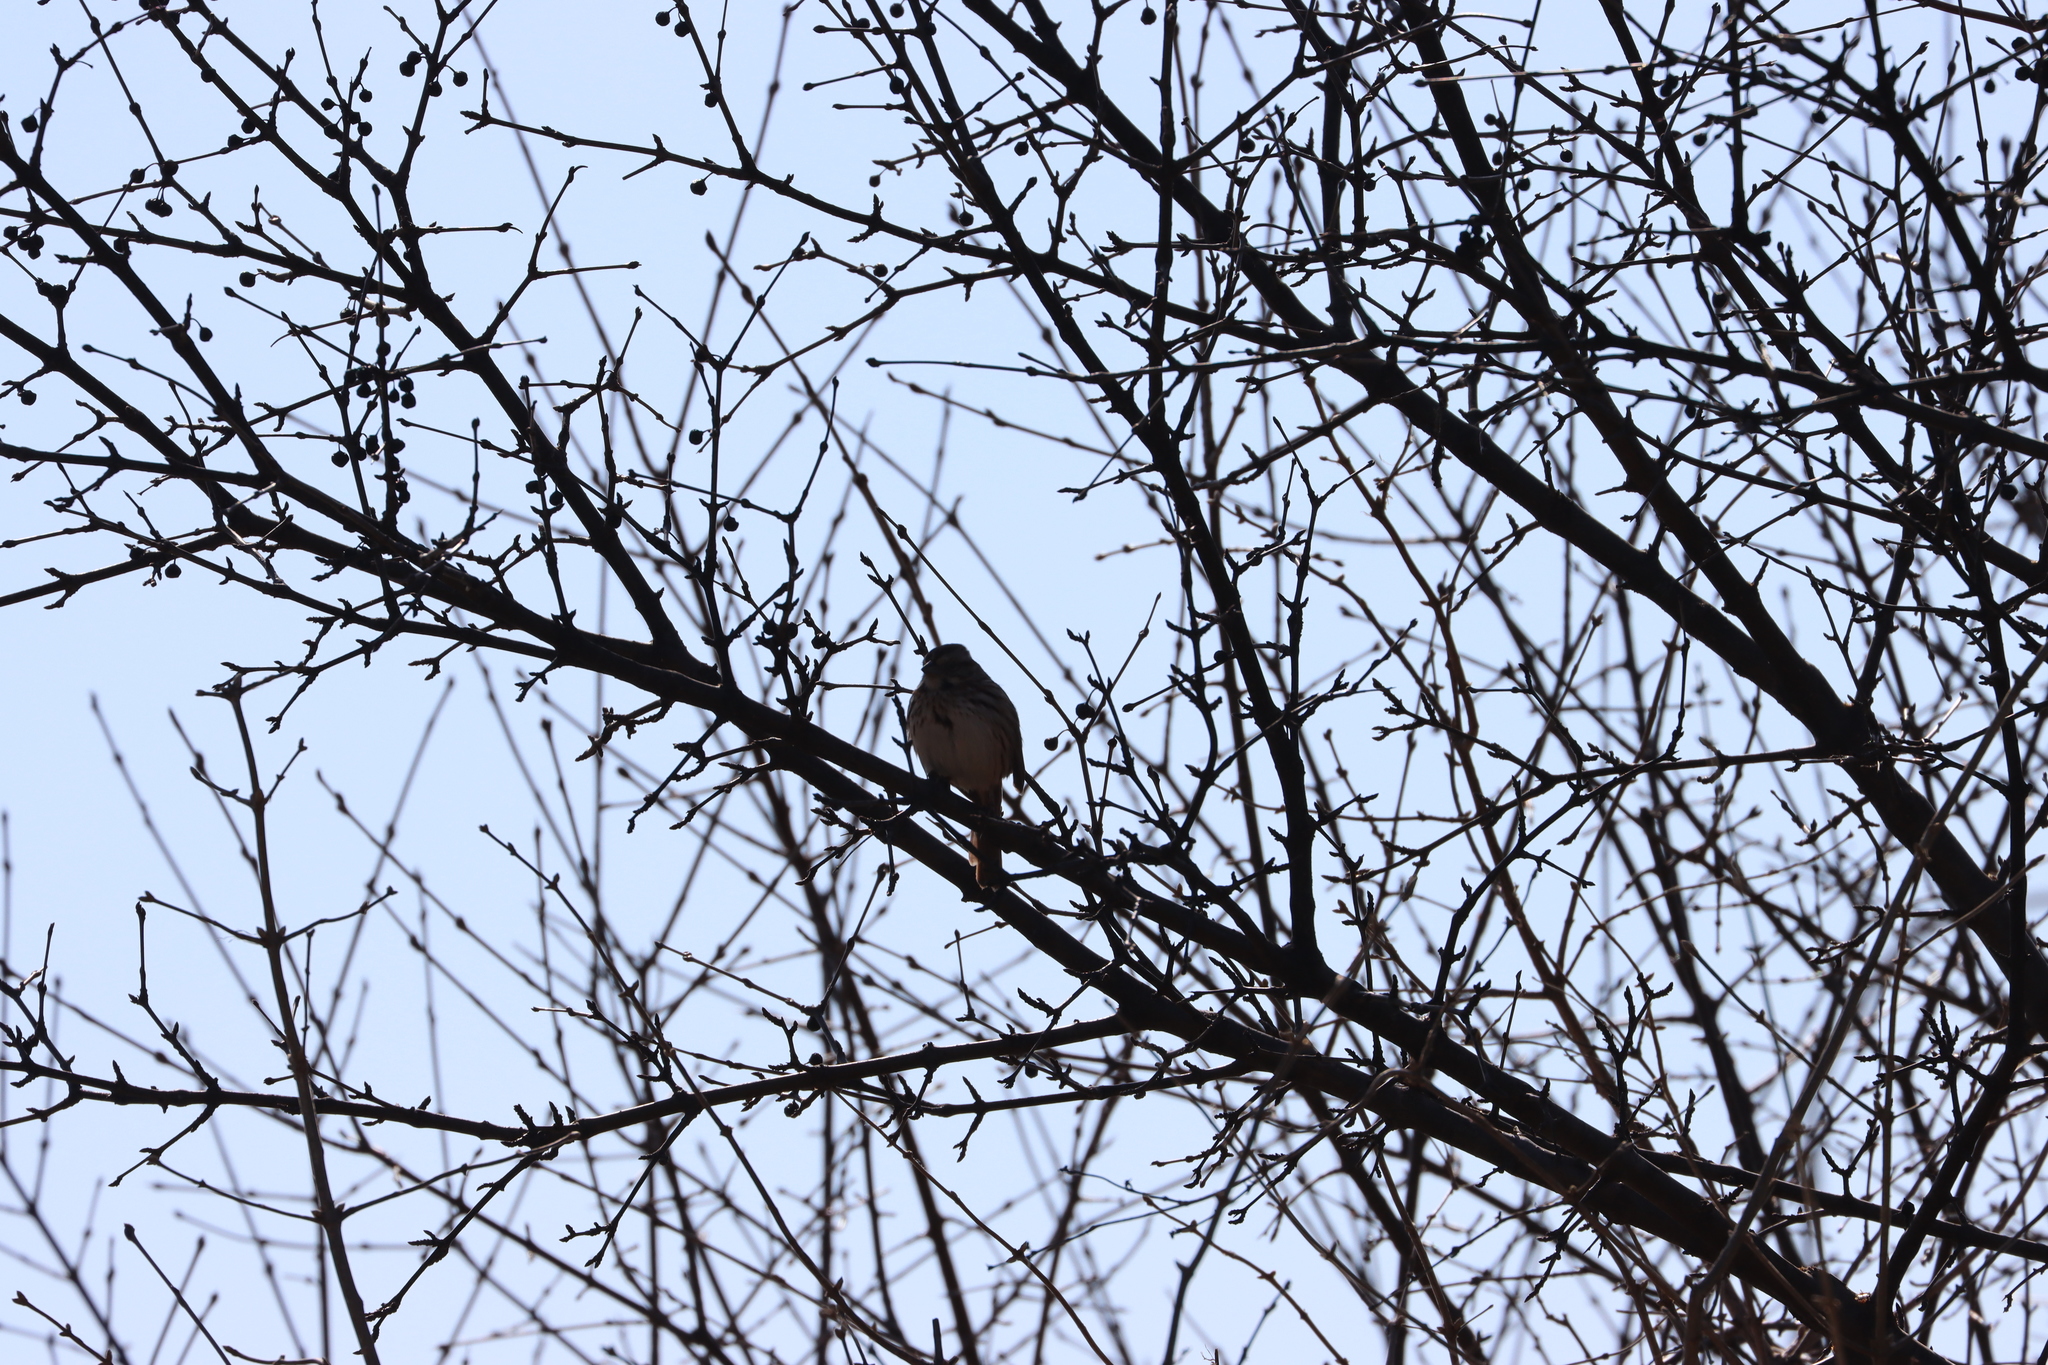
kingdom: Animalia
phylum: Chordata
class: Aves
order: Passeriformes
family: Passerellidae
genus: Melospiza
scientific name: Melospiza melodia
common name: Song sparrow
